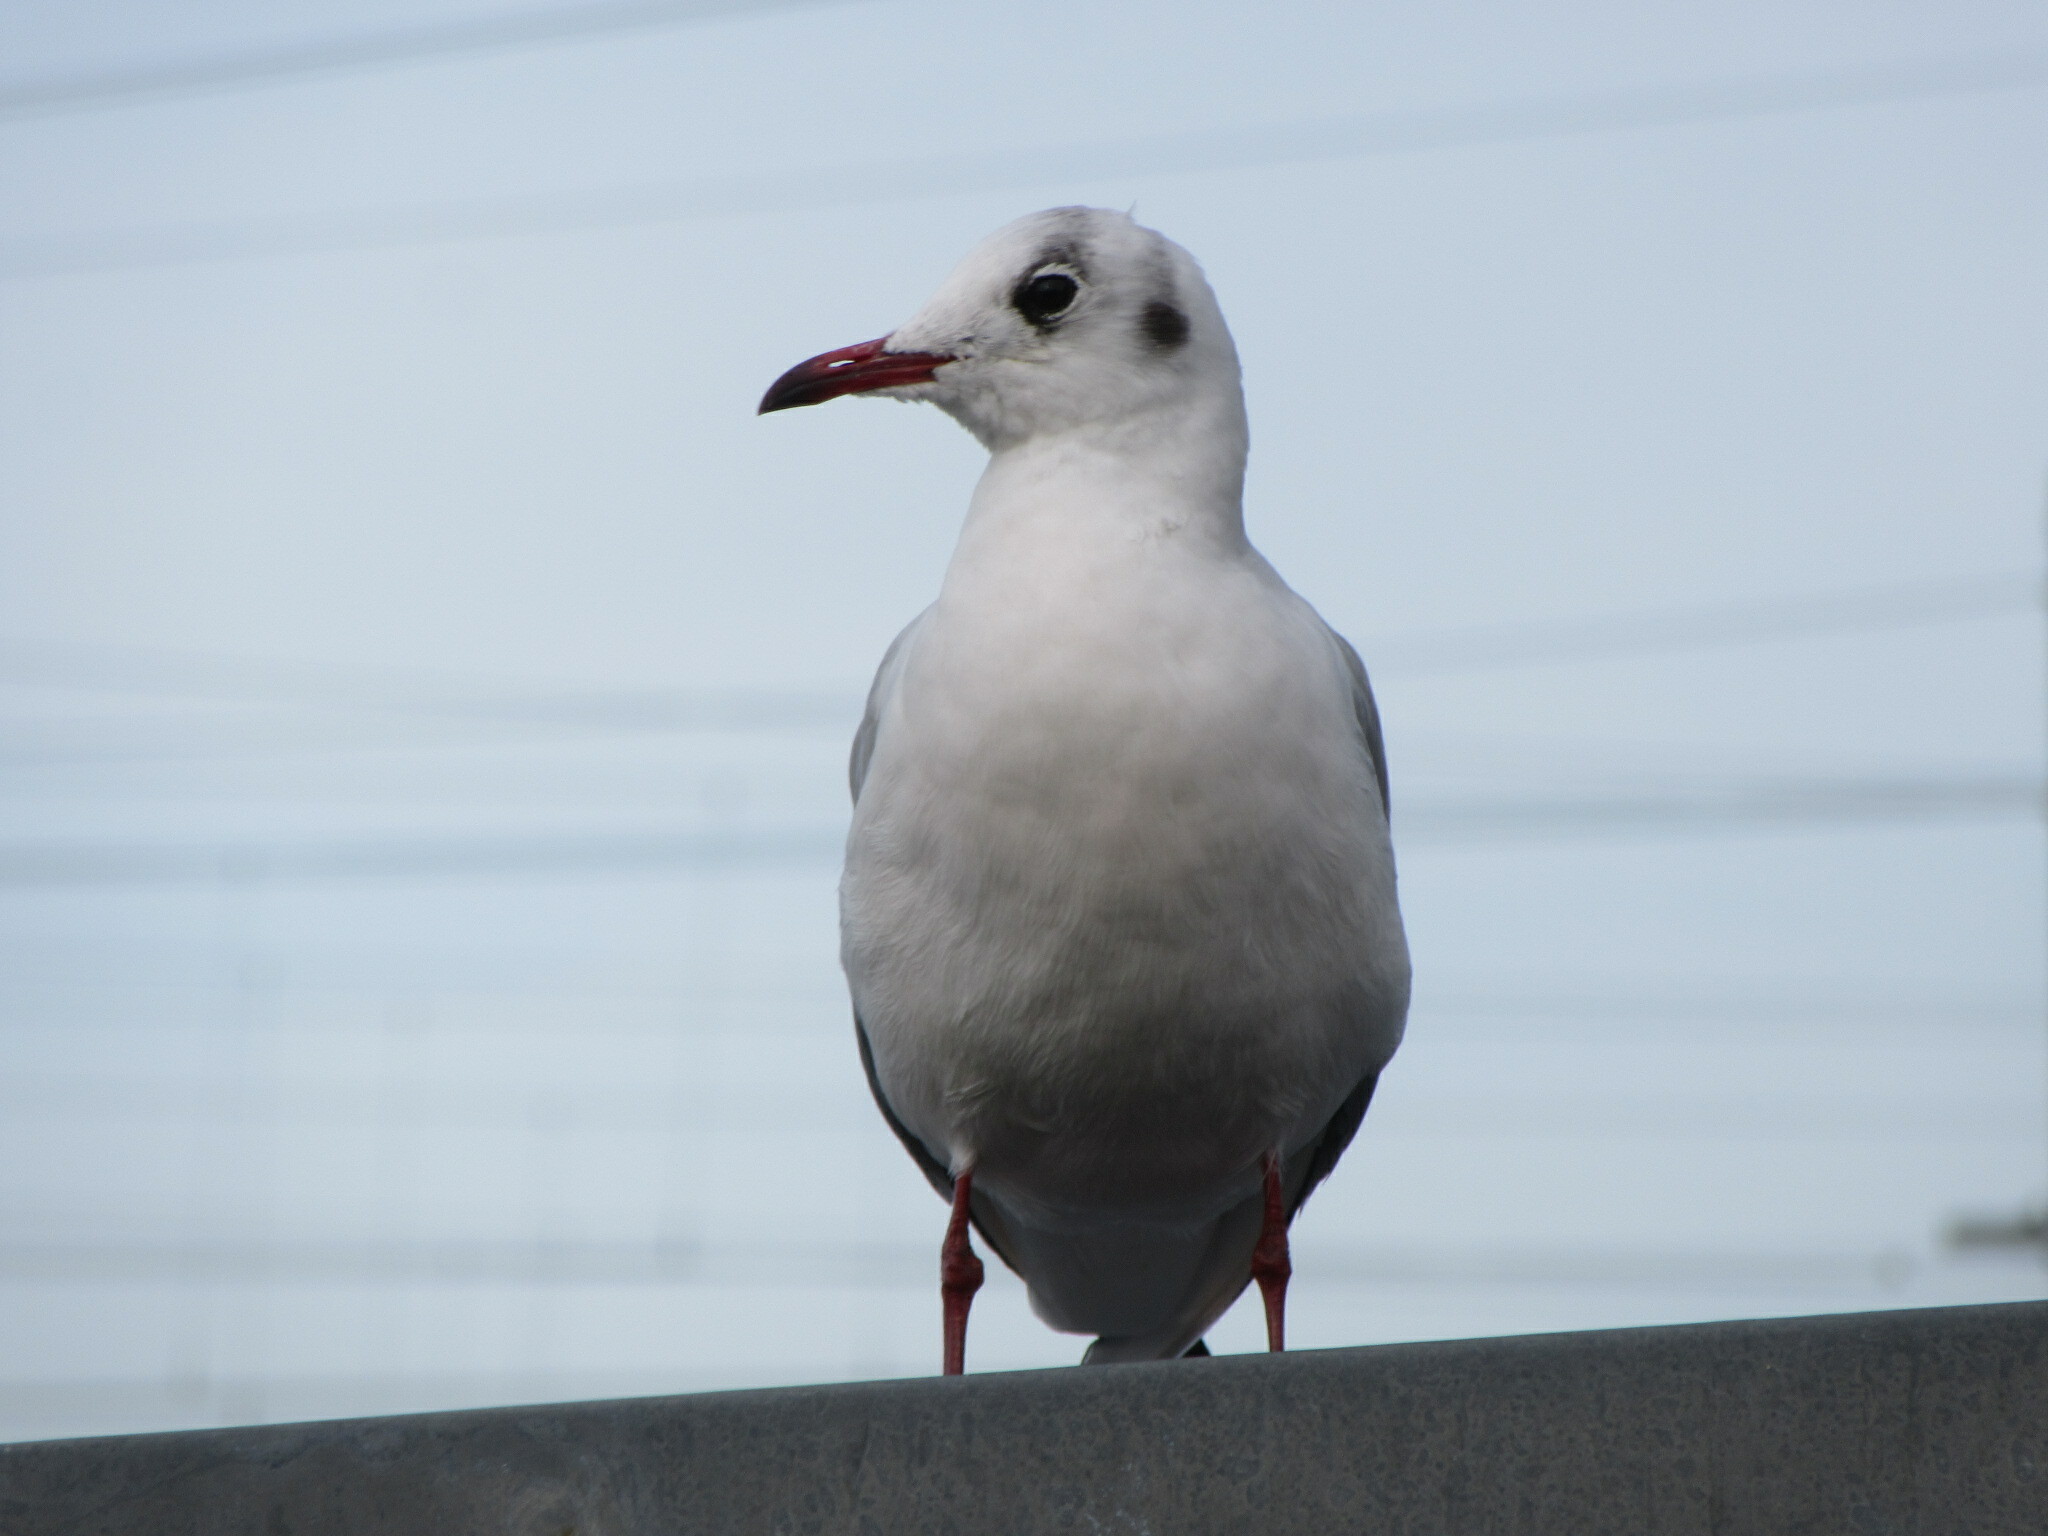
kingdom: Animalia
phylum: Chordata
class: Aves
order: Charadriiformes
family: Laridae
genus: Chroicocephalus
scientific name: Chroicocephalus ridibundus
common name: Black-headed gull
